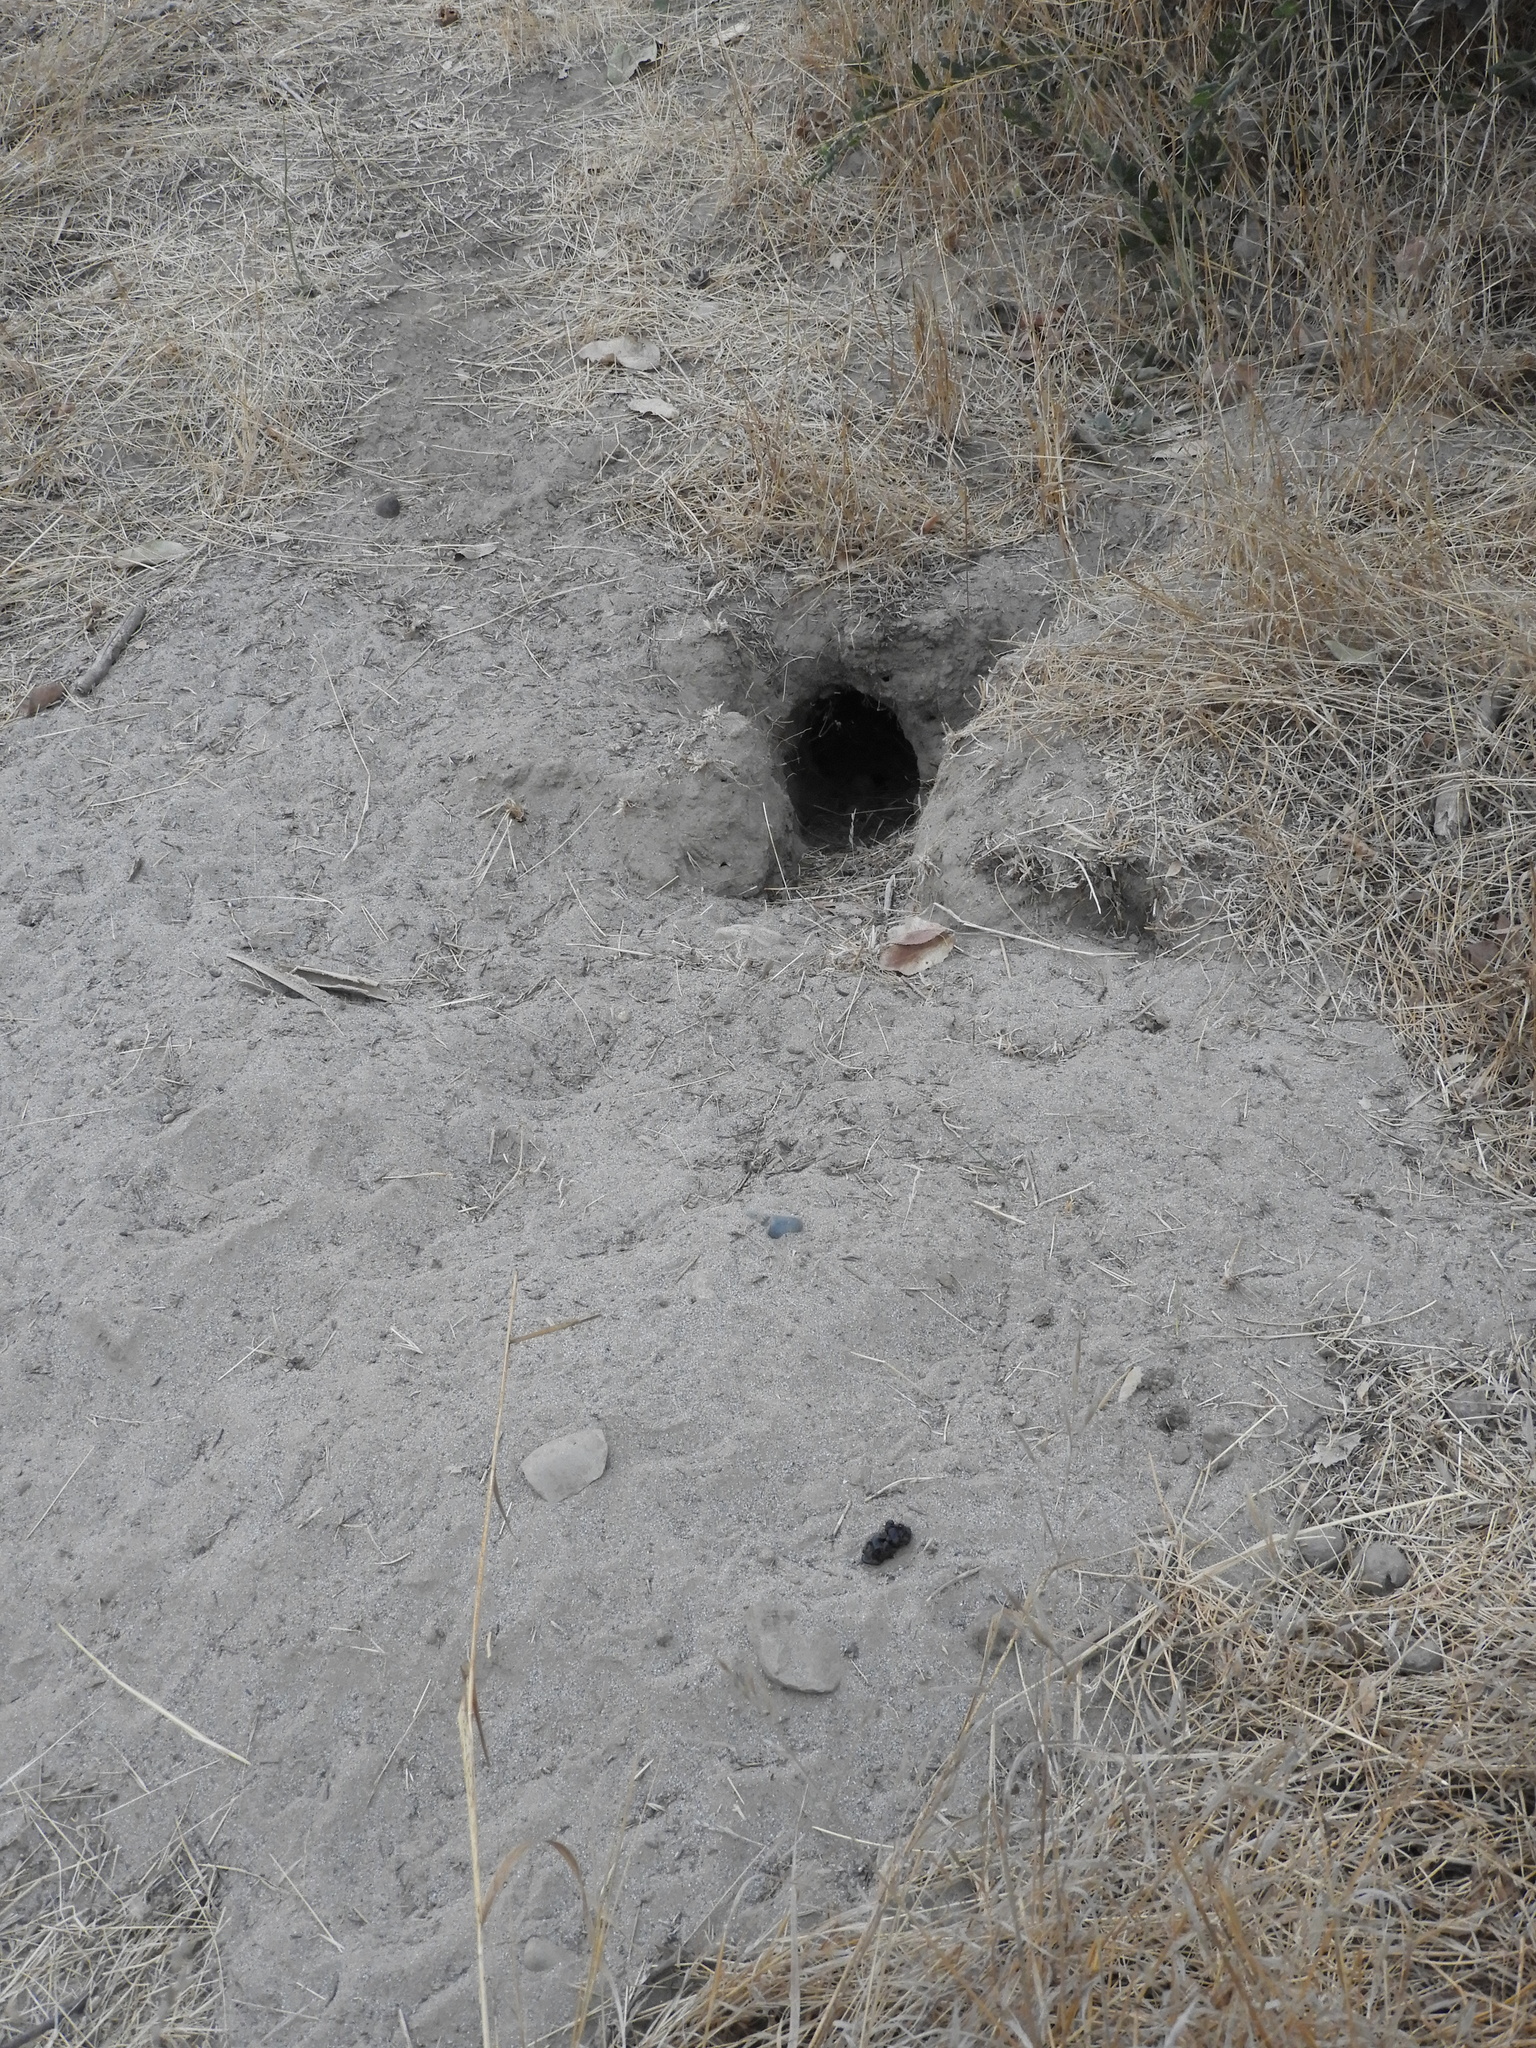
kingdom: Animalia
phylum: Chordata
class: Mammalia
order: Rodentia
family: Sciuridae
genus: Otospermophilus
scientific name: Otospermophilus beecheyi
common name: California ground squirrel
